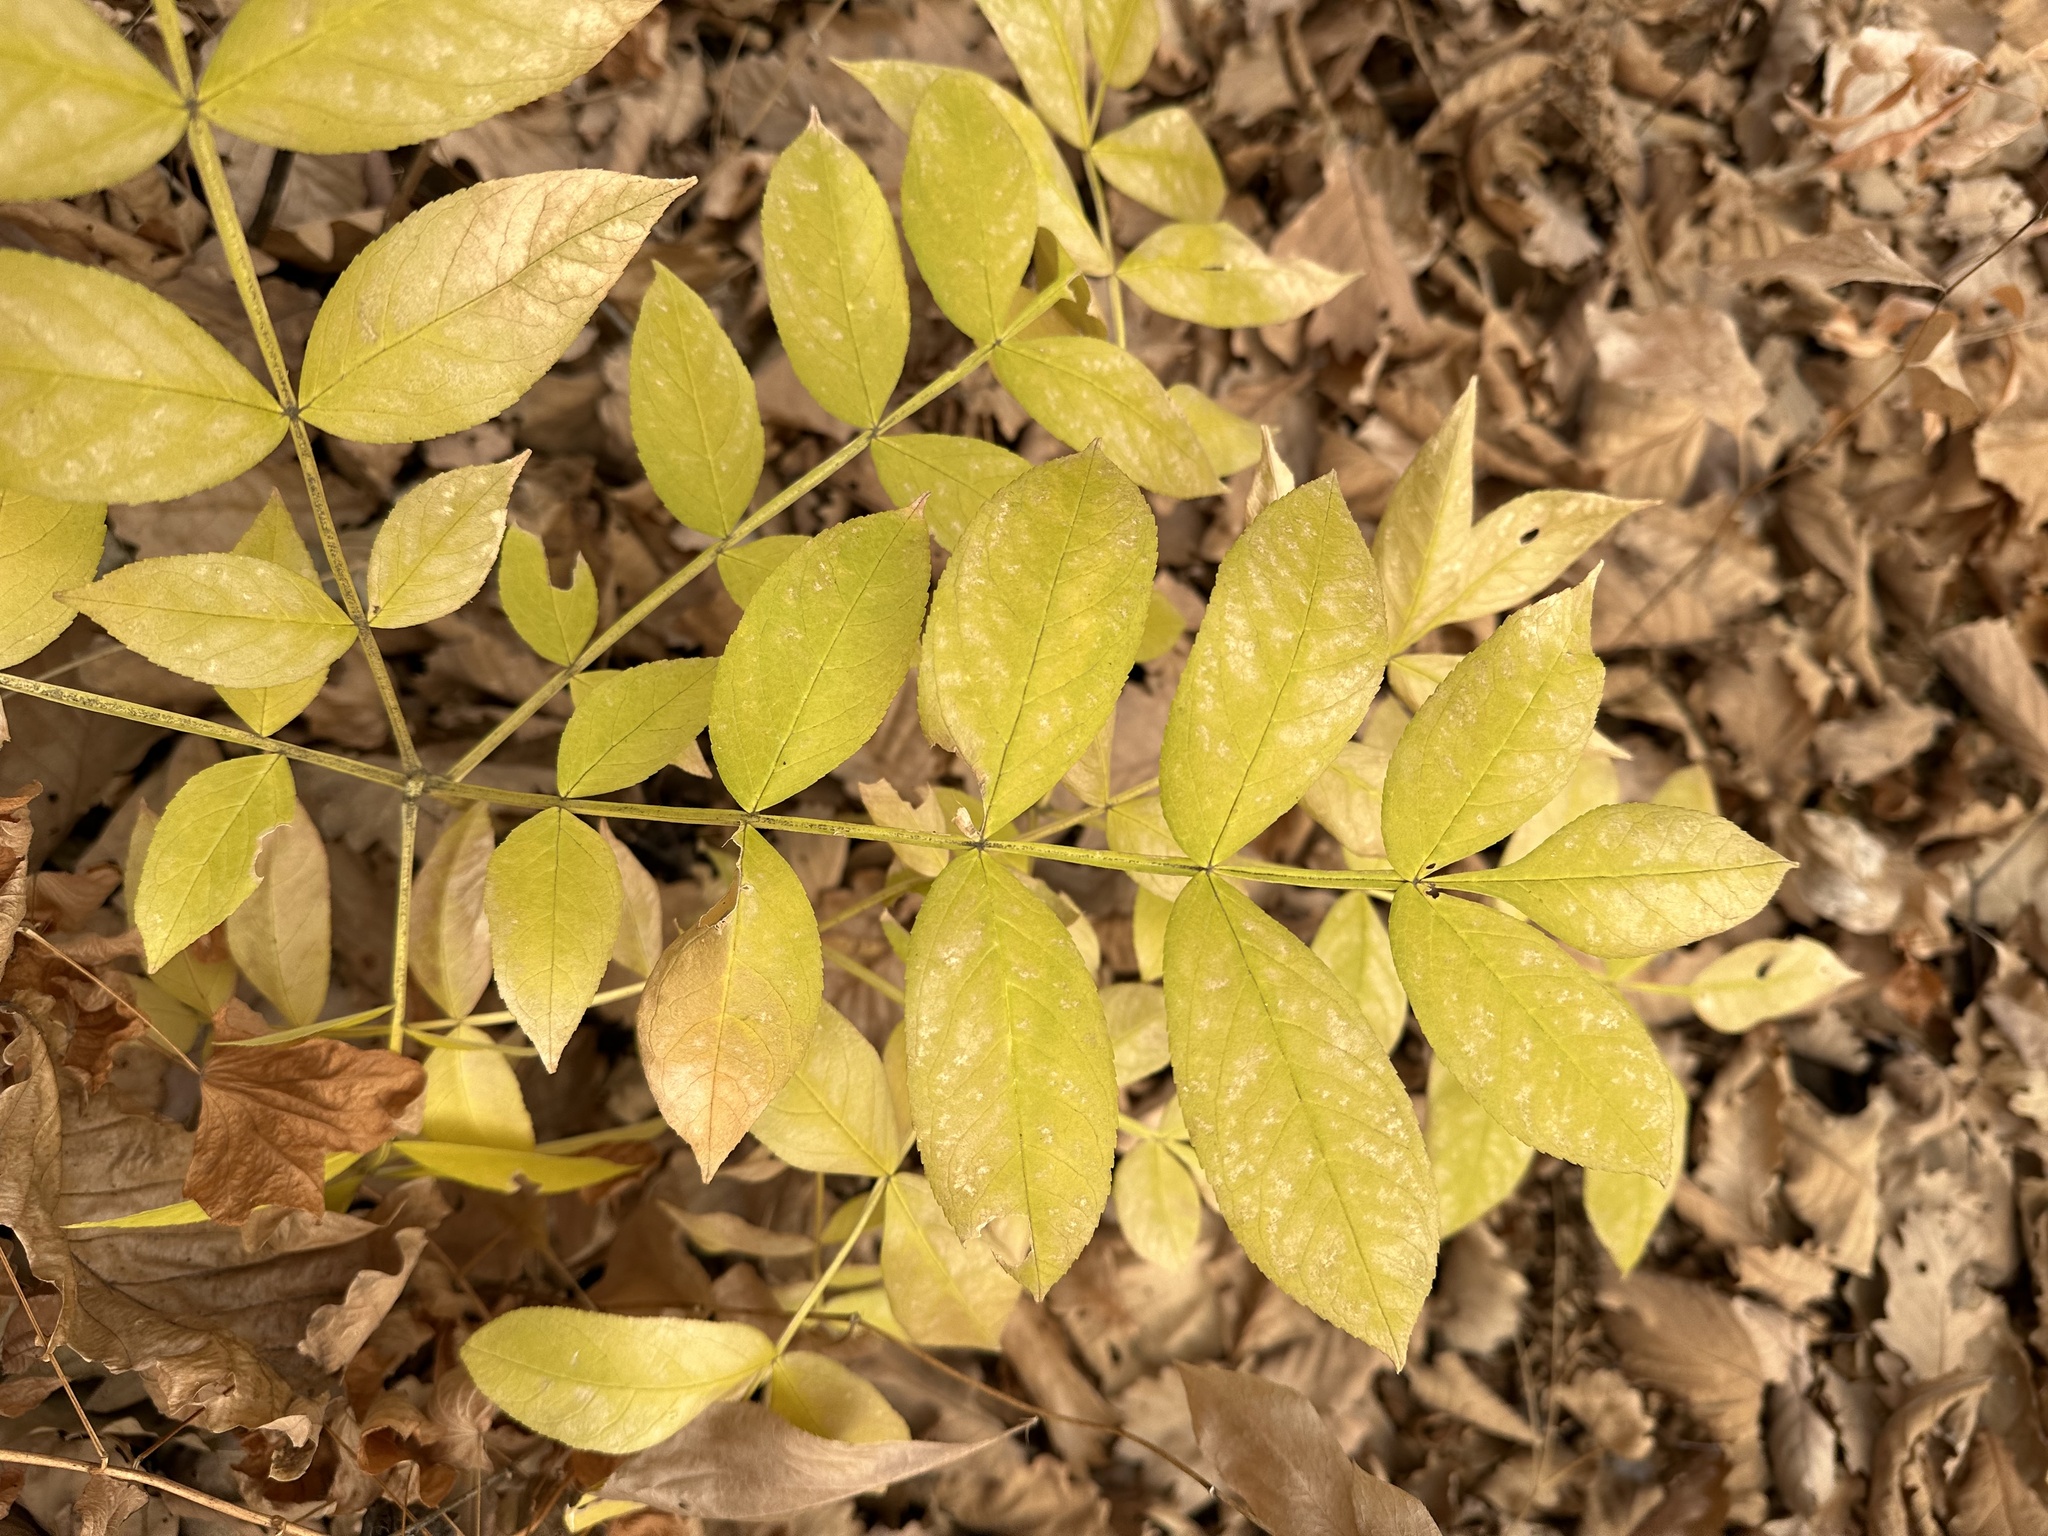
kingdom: Plantae
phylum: Tracheophyta
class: Magnoliopsida
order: Sapindales
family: Rutaceae
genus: Dictamnus
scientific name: Dictamnus dasycarpus
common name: Dense-fruit dittany
